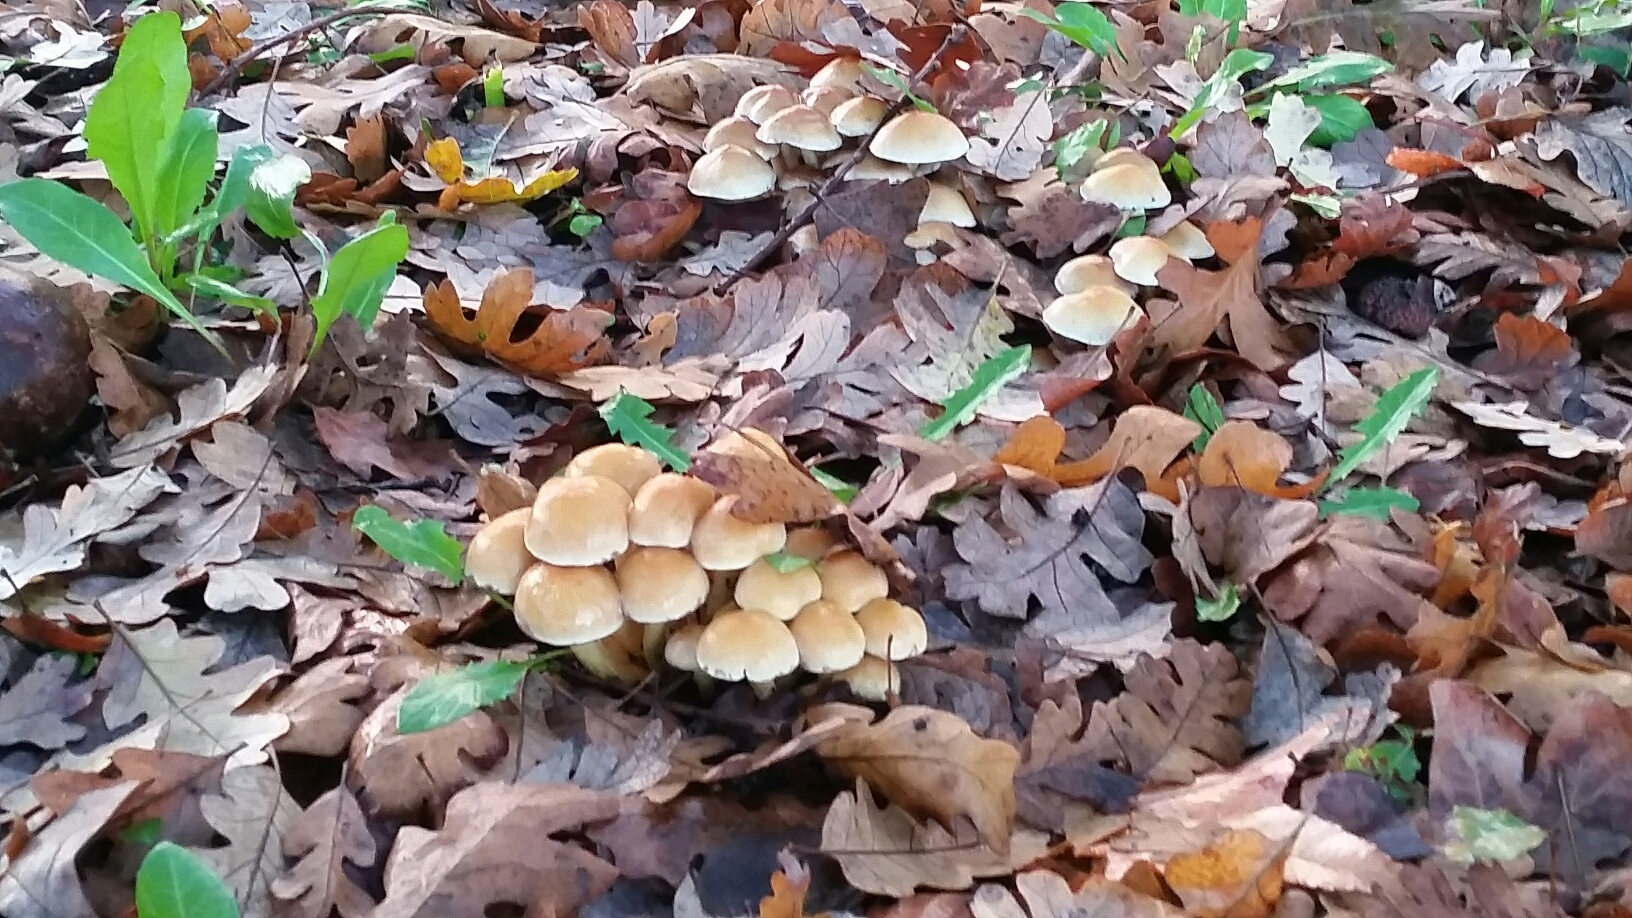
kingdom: Fungi
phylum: Basidiomycota
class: Agaricomycetes
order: Agaricales
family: Strophariaceae
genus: Hypholoma
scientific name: Hypholoma fasciculare
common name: Sulphur tuft
